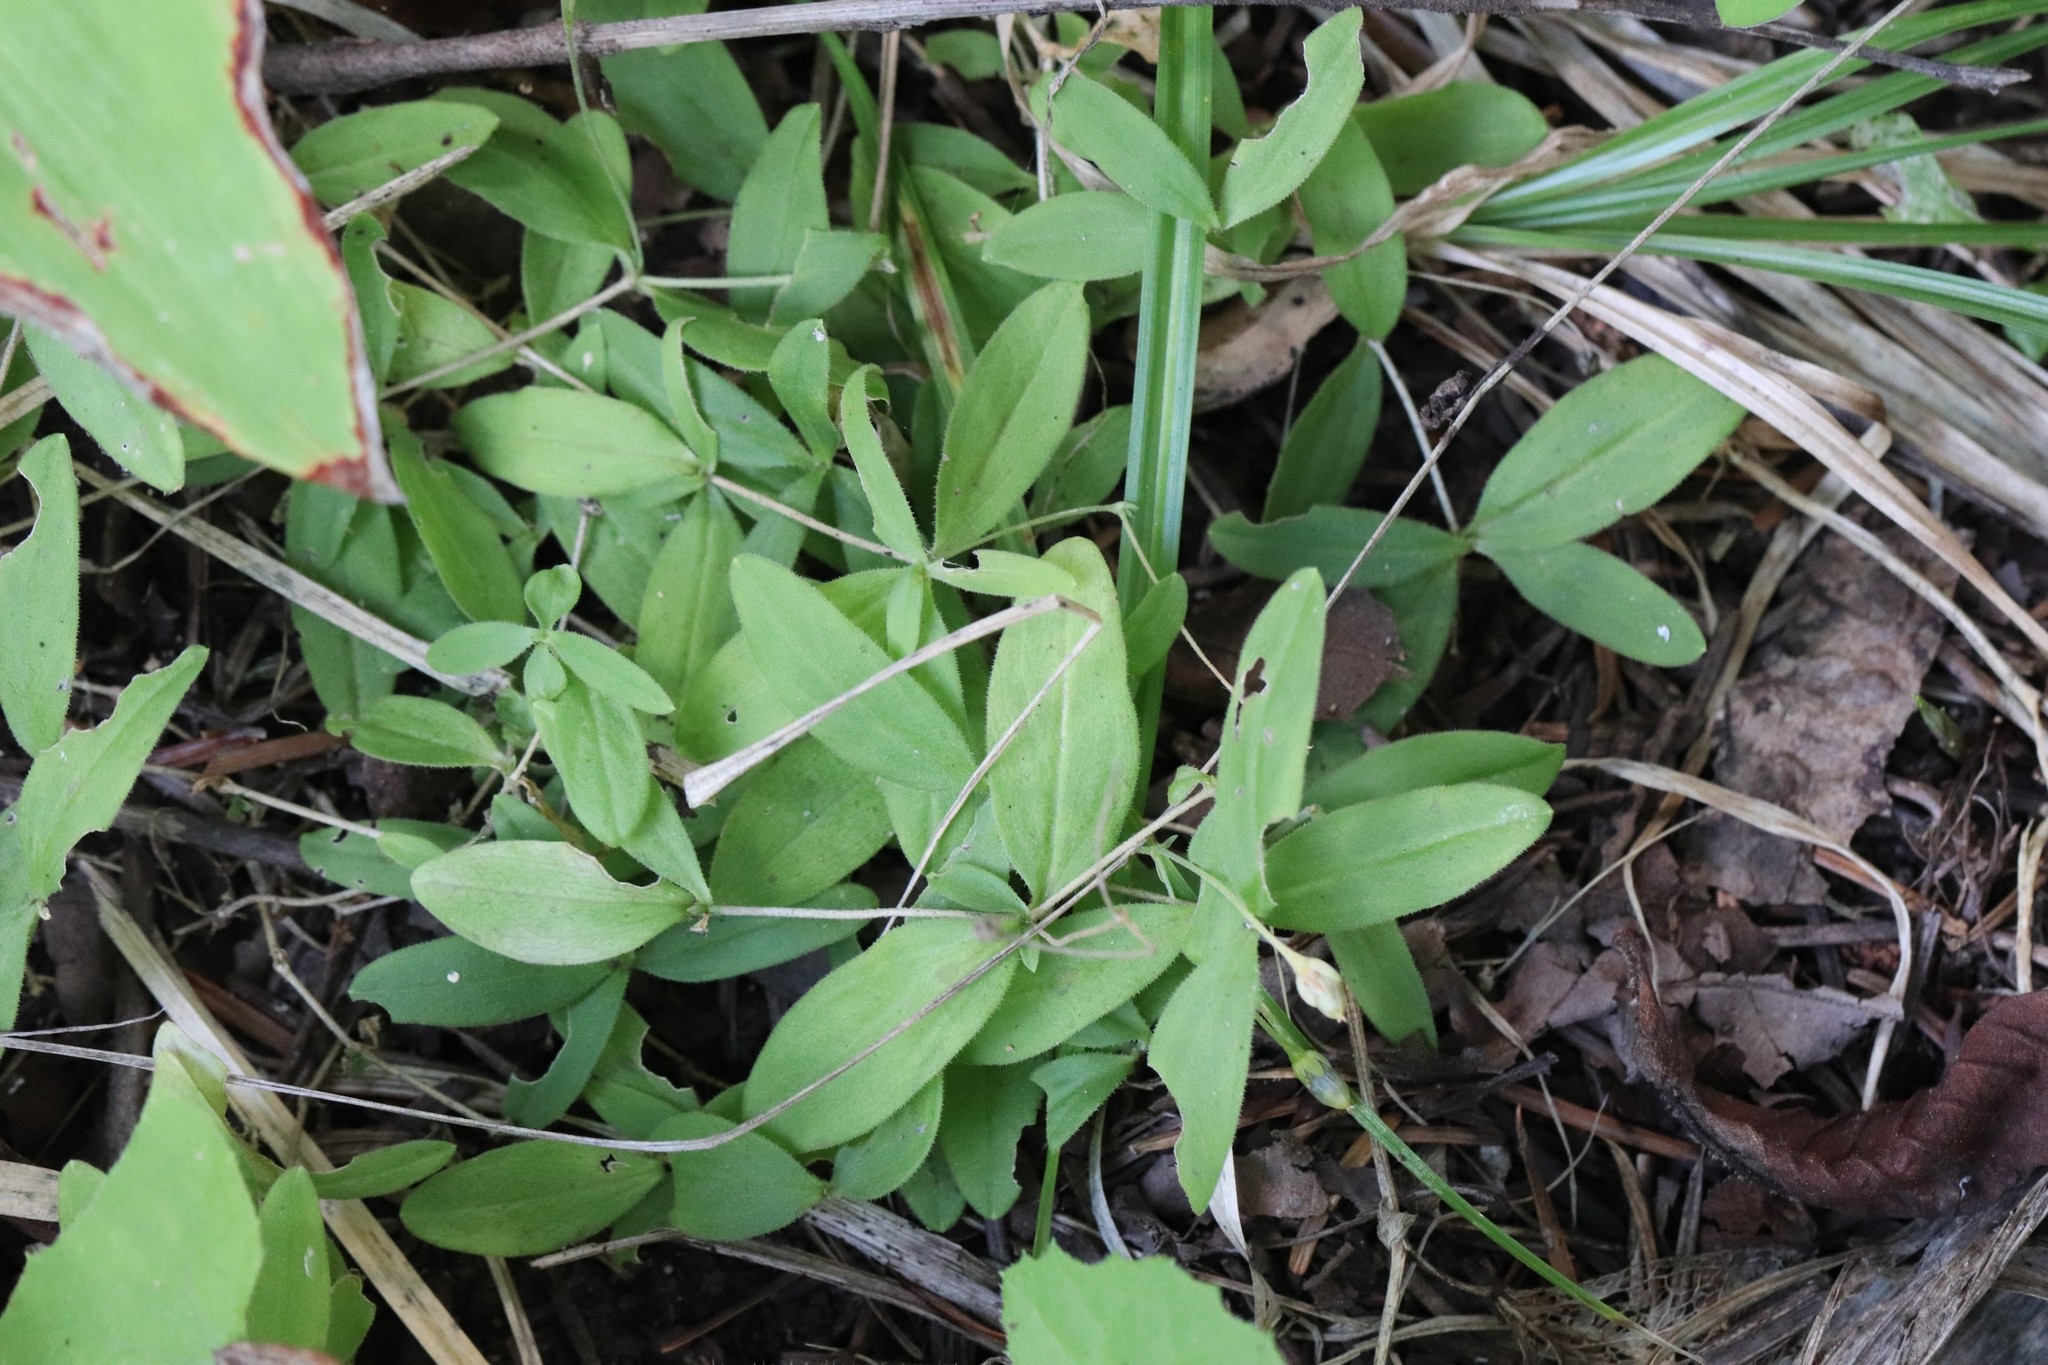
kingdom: Plantae
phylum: Tracheophyta
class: Magnoliopsida
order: Caryophyllales
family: Caryophyllaceae
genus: Moehringia
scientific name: Moehringia lateriflora
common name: Blunt-leaved sandwort
